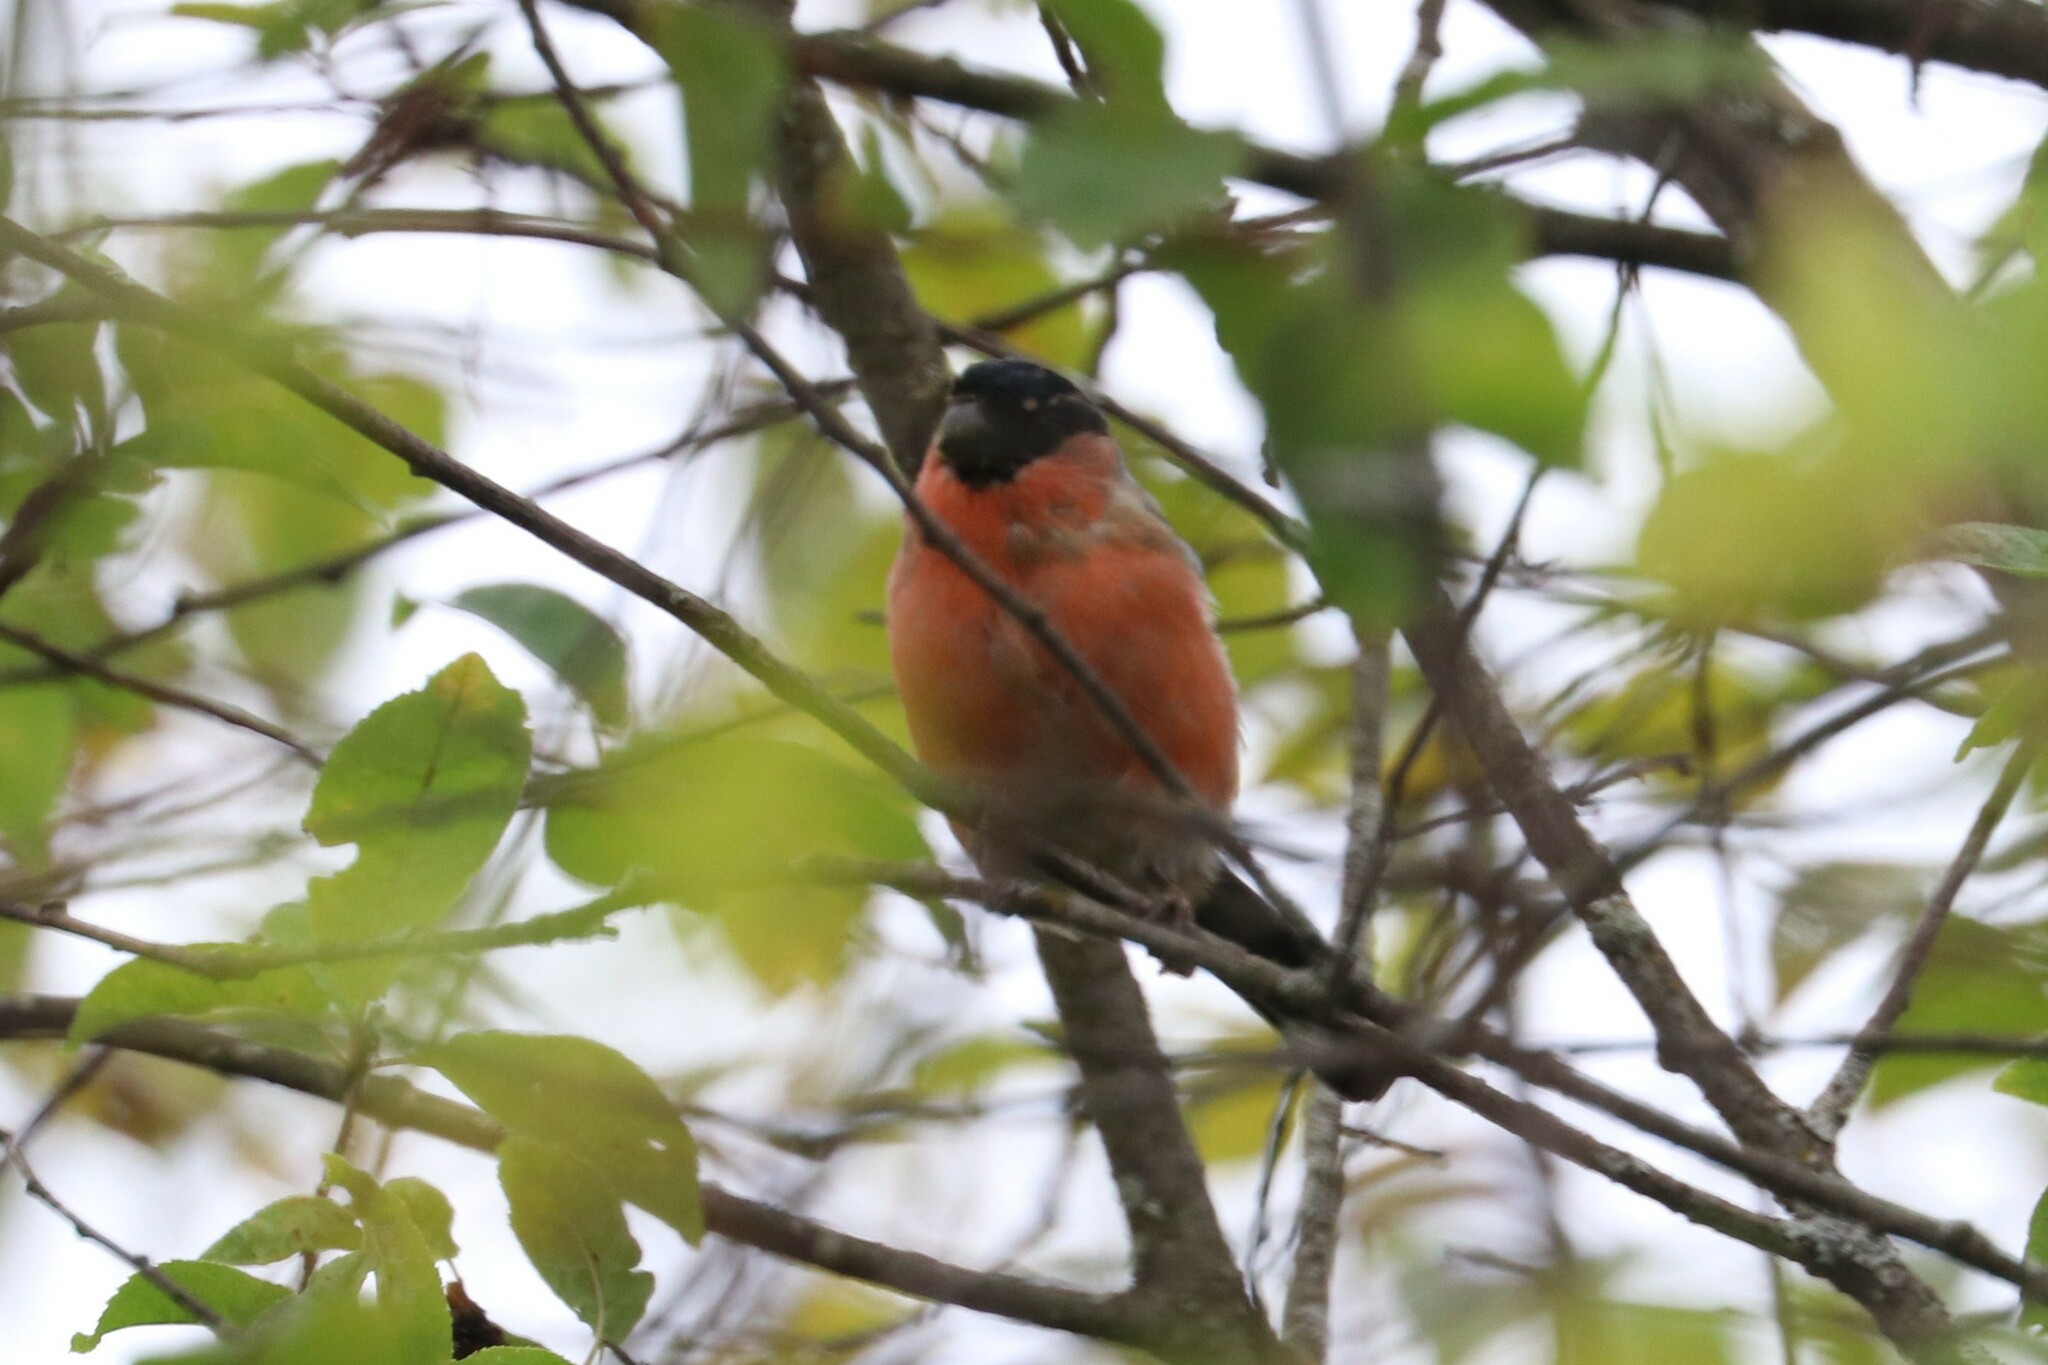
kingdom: Animalia
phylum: Chordata
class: Aves
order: Passeriformes
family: Fringillidae
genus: Pyrrhula
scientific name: Pyrrhula pyrrhula
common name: Eurasian bullfinch
